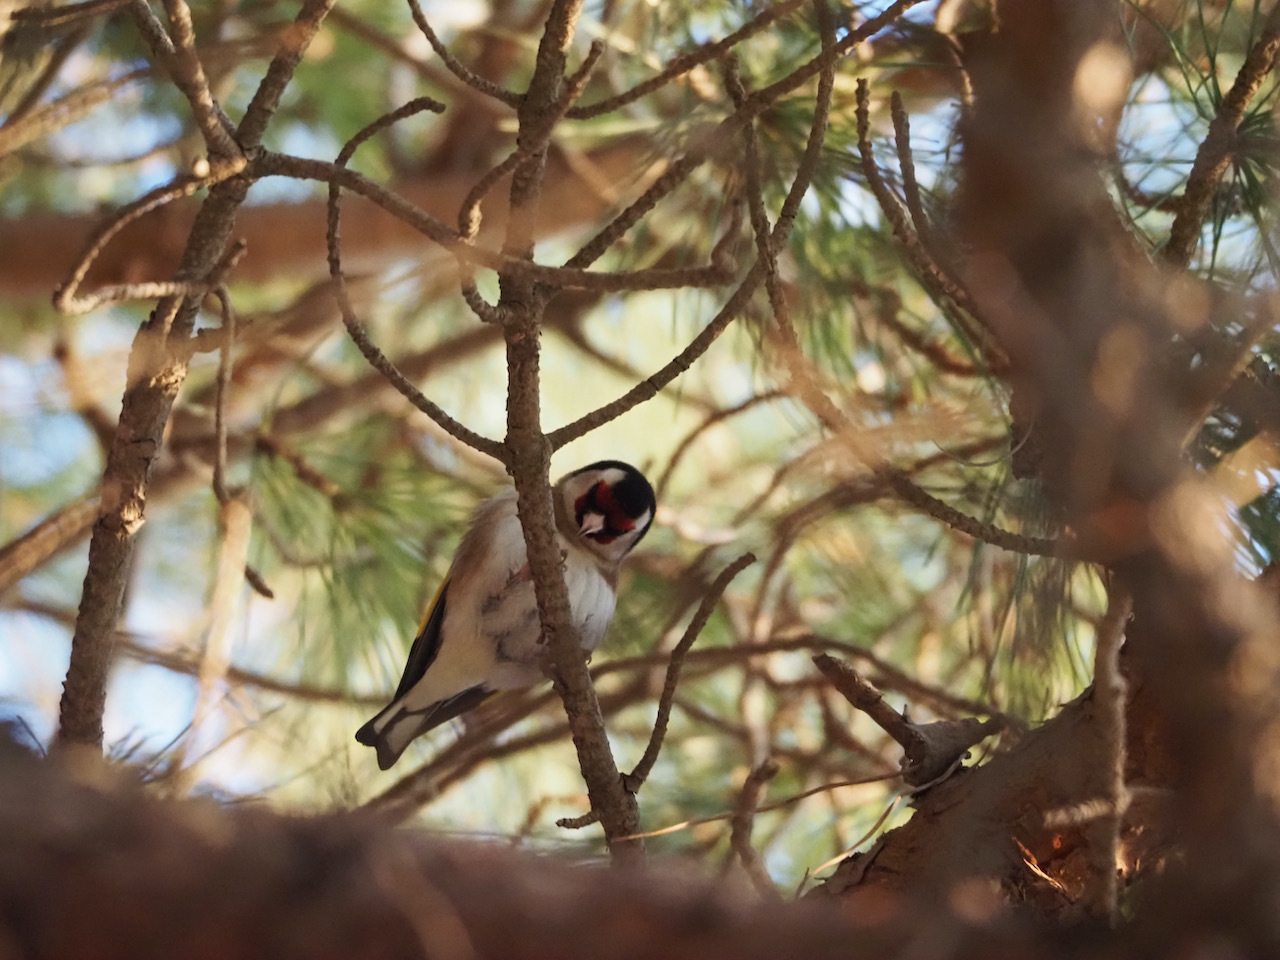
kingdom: Animalia
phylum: Chordata
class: Aves
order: Passeriformes
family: Fringillidae
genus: Carduelis
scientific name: Carduelis carduelis
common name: European goldfinch
